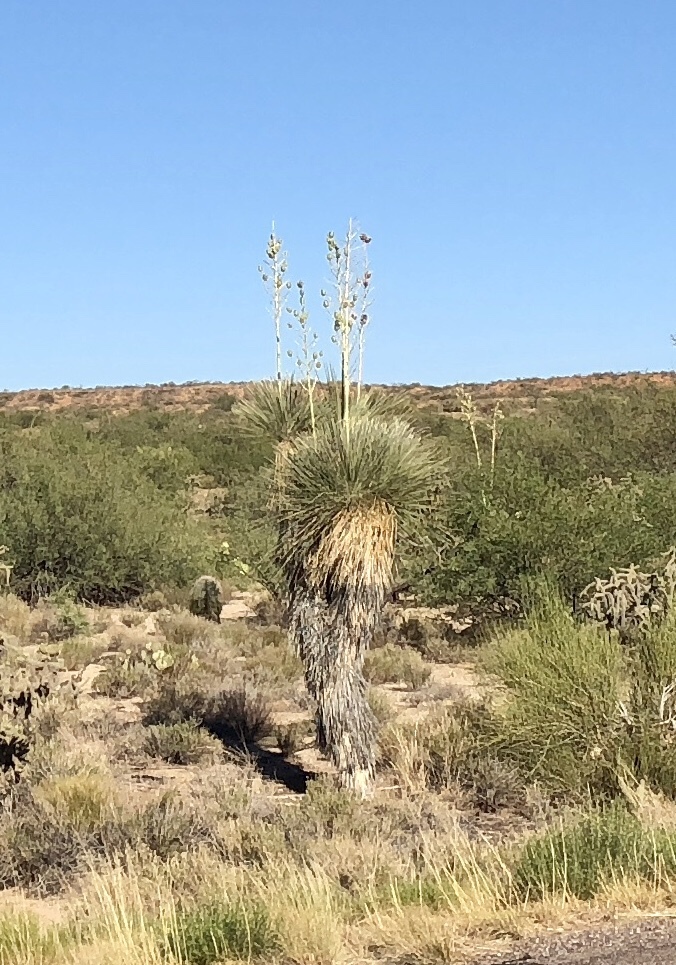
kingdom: Plantae
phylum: Tracheophyta
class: Liliopsida
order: Asparagales
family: Asparagaceae
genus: Yucca
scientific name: Yucca elata
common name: Palmella
